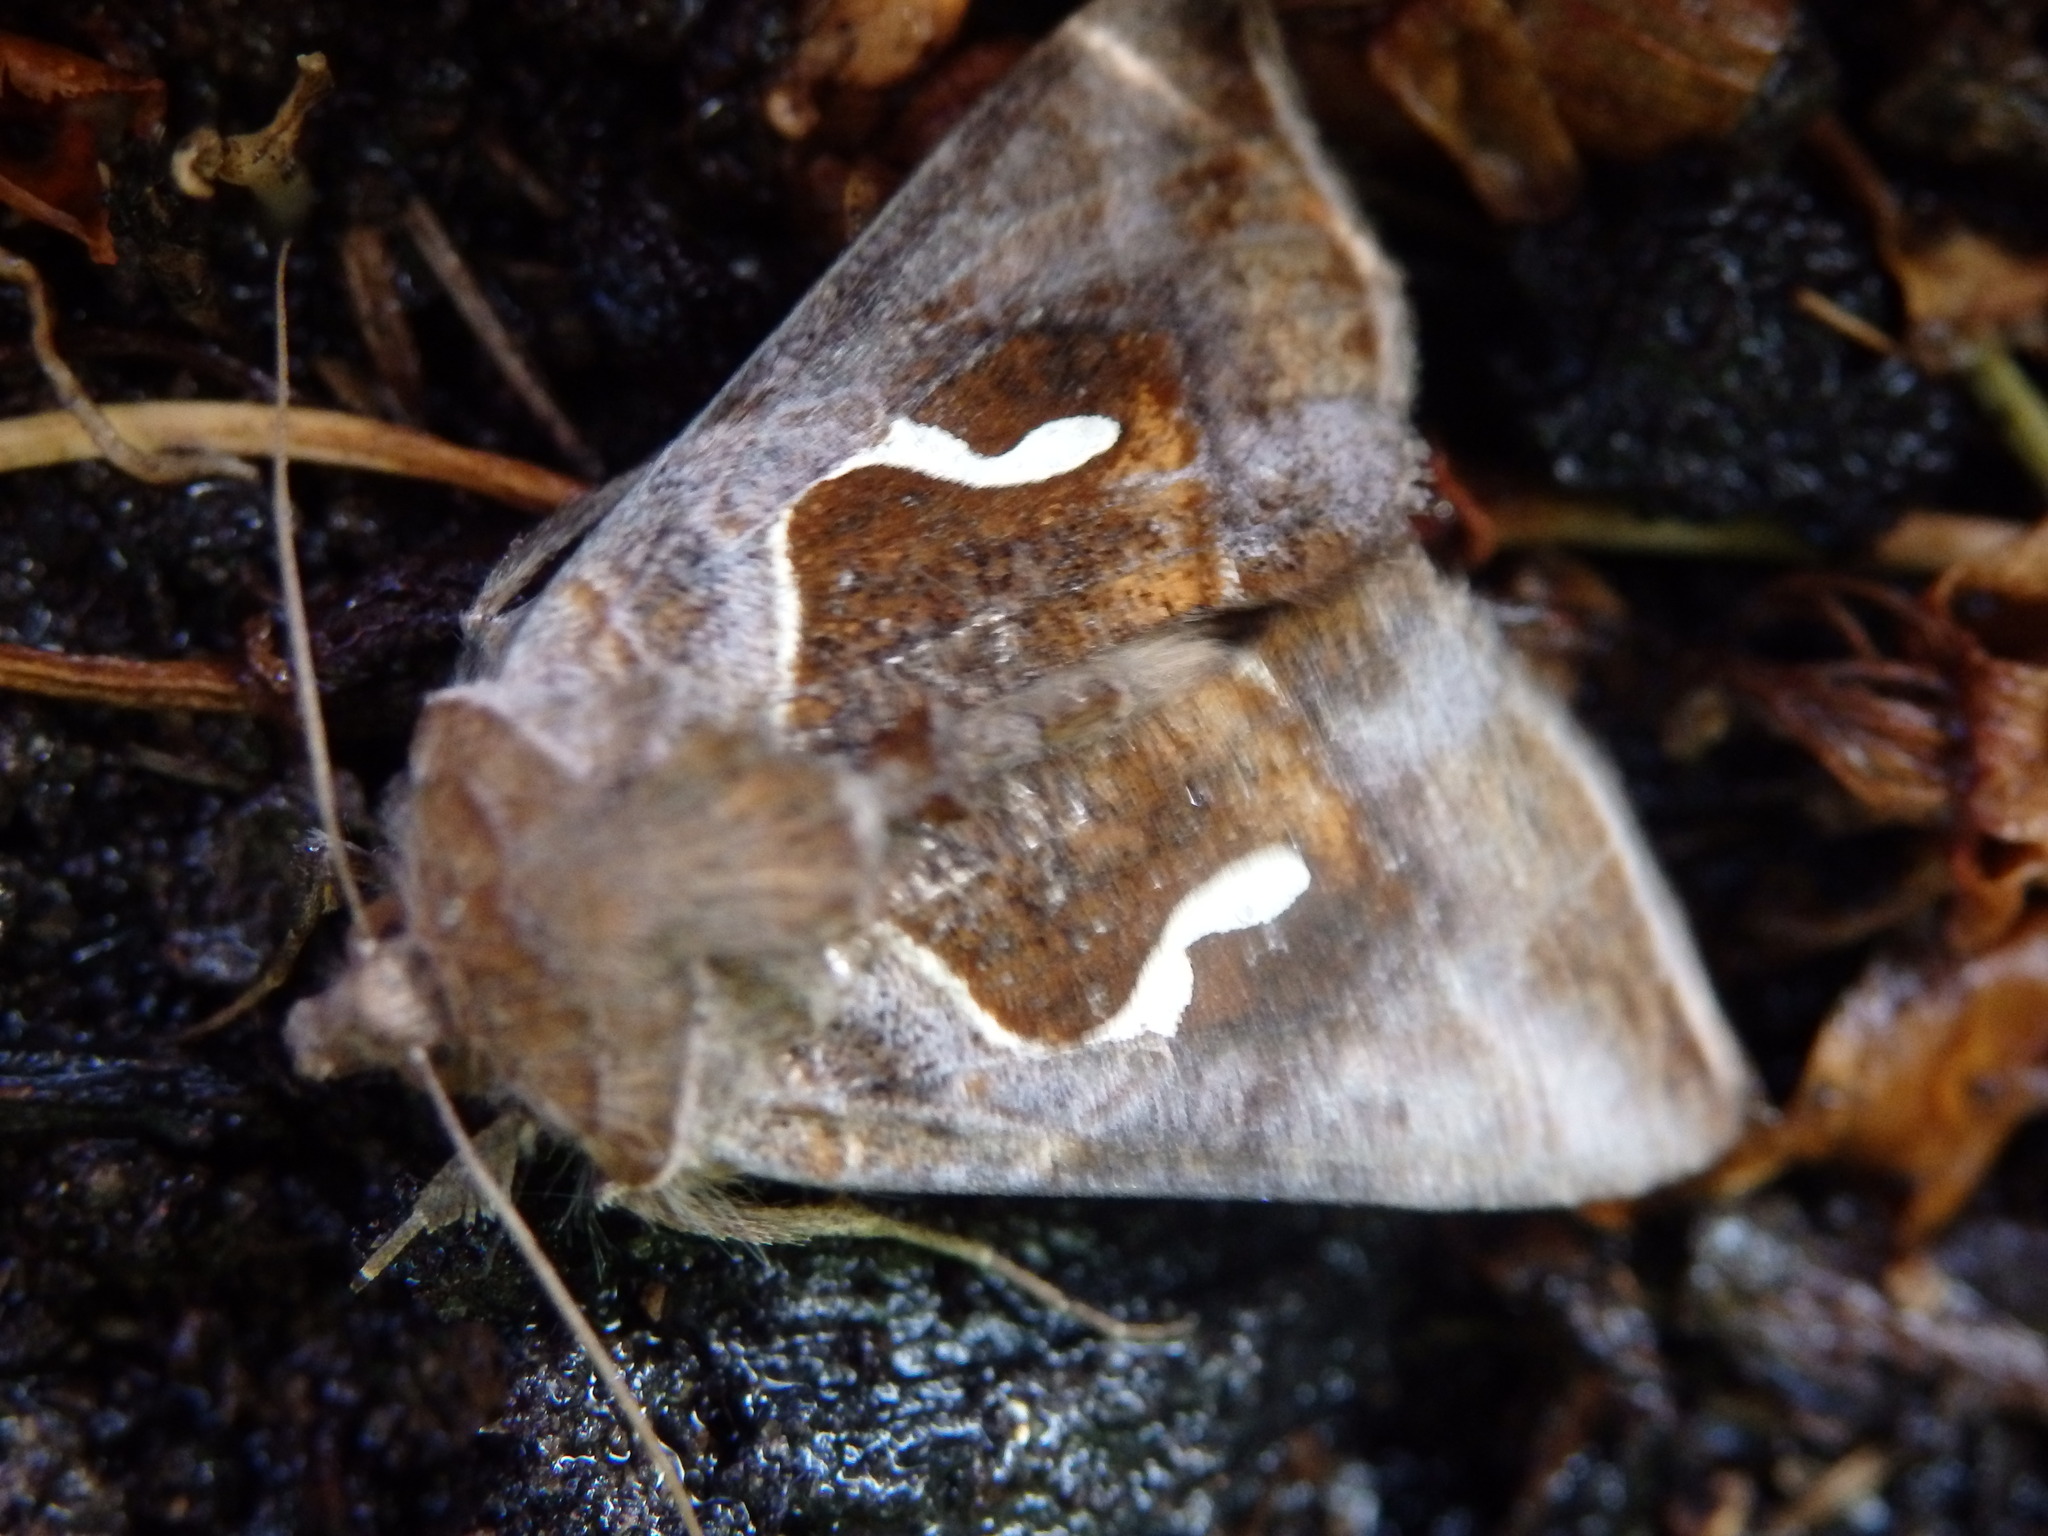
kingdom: Animalia
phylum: Arthropoda
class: Insecta
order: Lepidoptera
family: Noctuidae
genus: Macdunnoughia
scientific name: Macdunnoughia confusa
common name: Dewick's plusia
